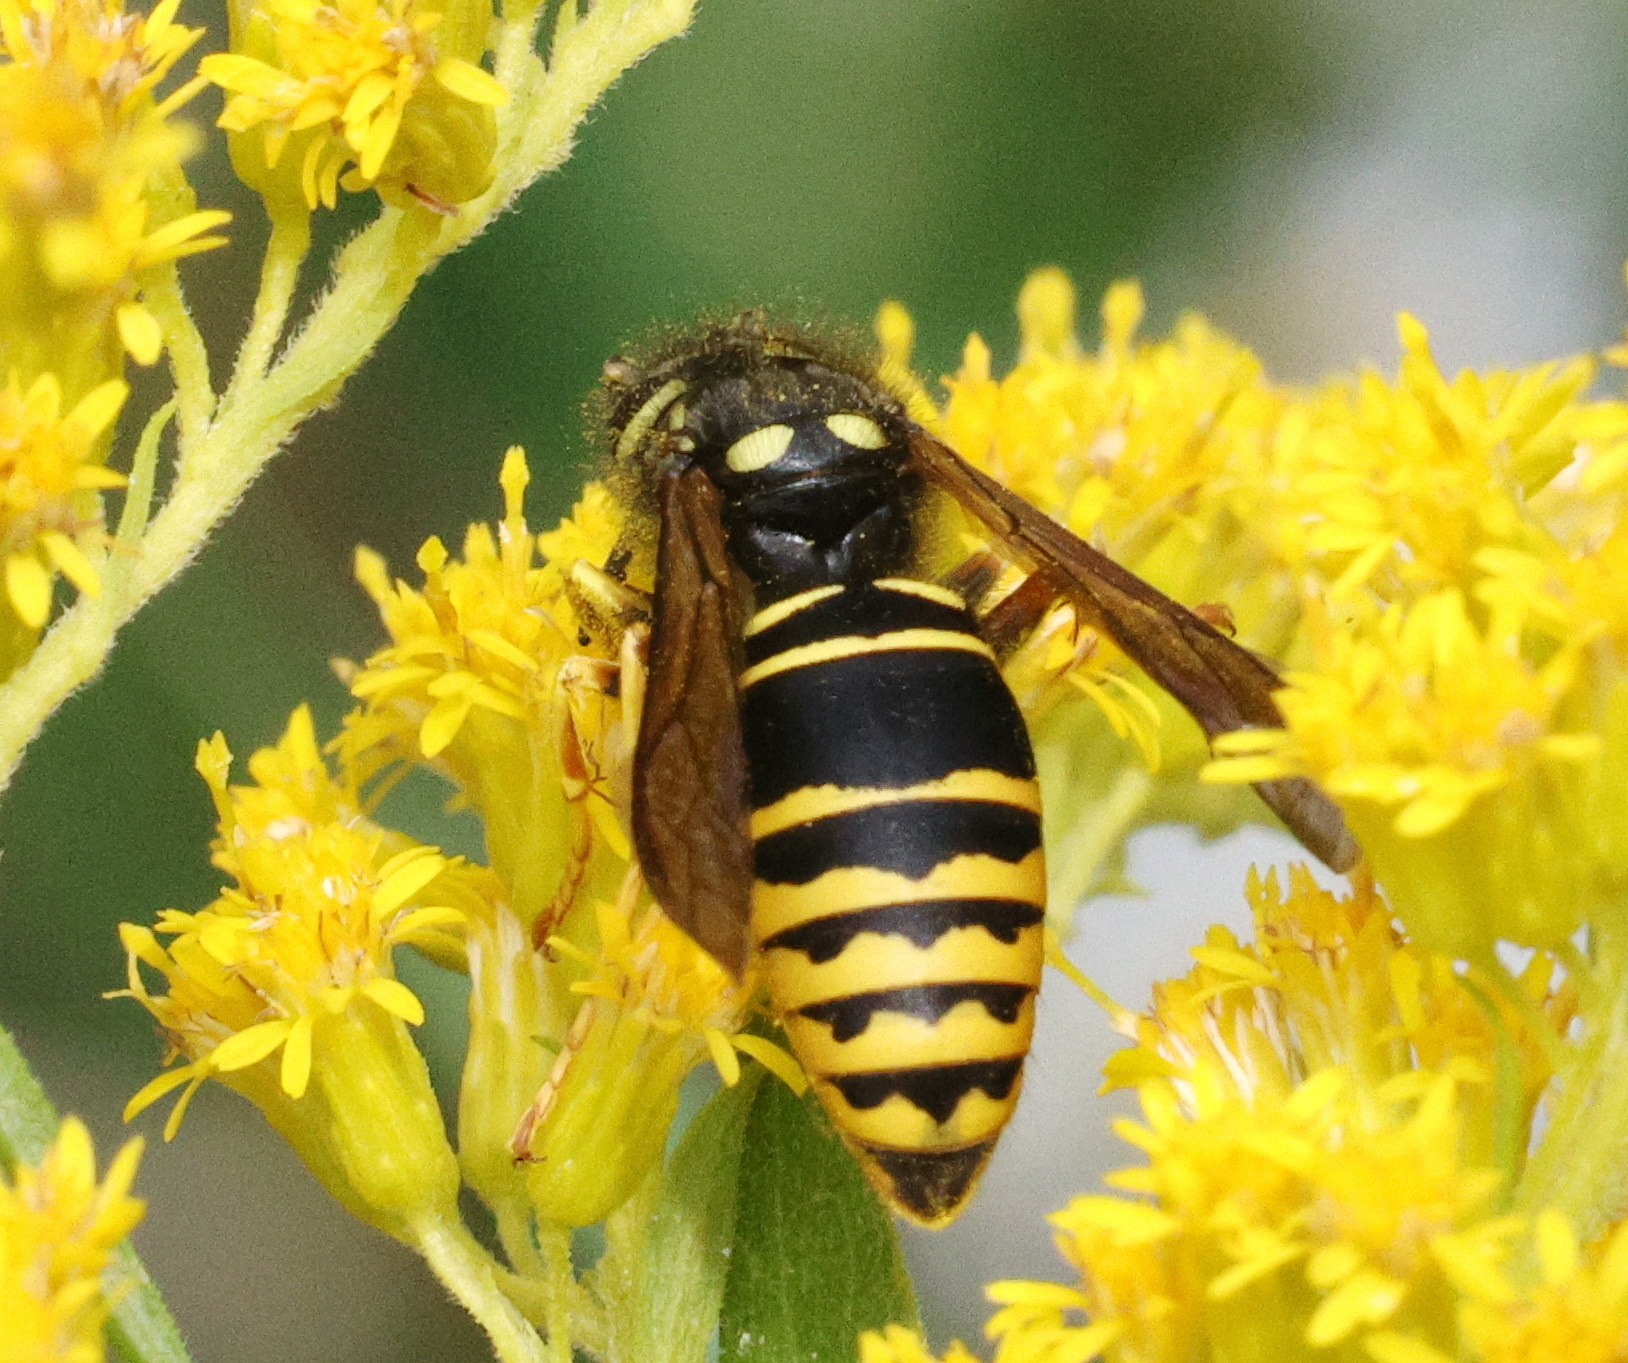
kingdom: Animalia
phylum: Arthropoda
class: Insecta
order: Hymenoptera
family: Vespidae
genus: Vespula
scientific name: Vespula vidua
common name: Widow yellowjacket
